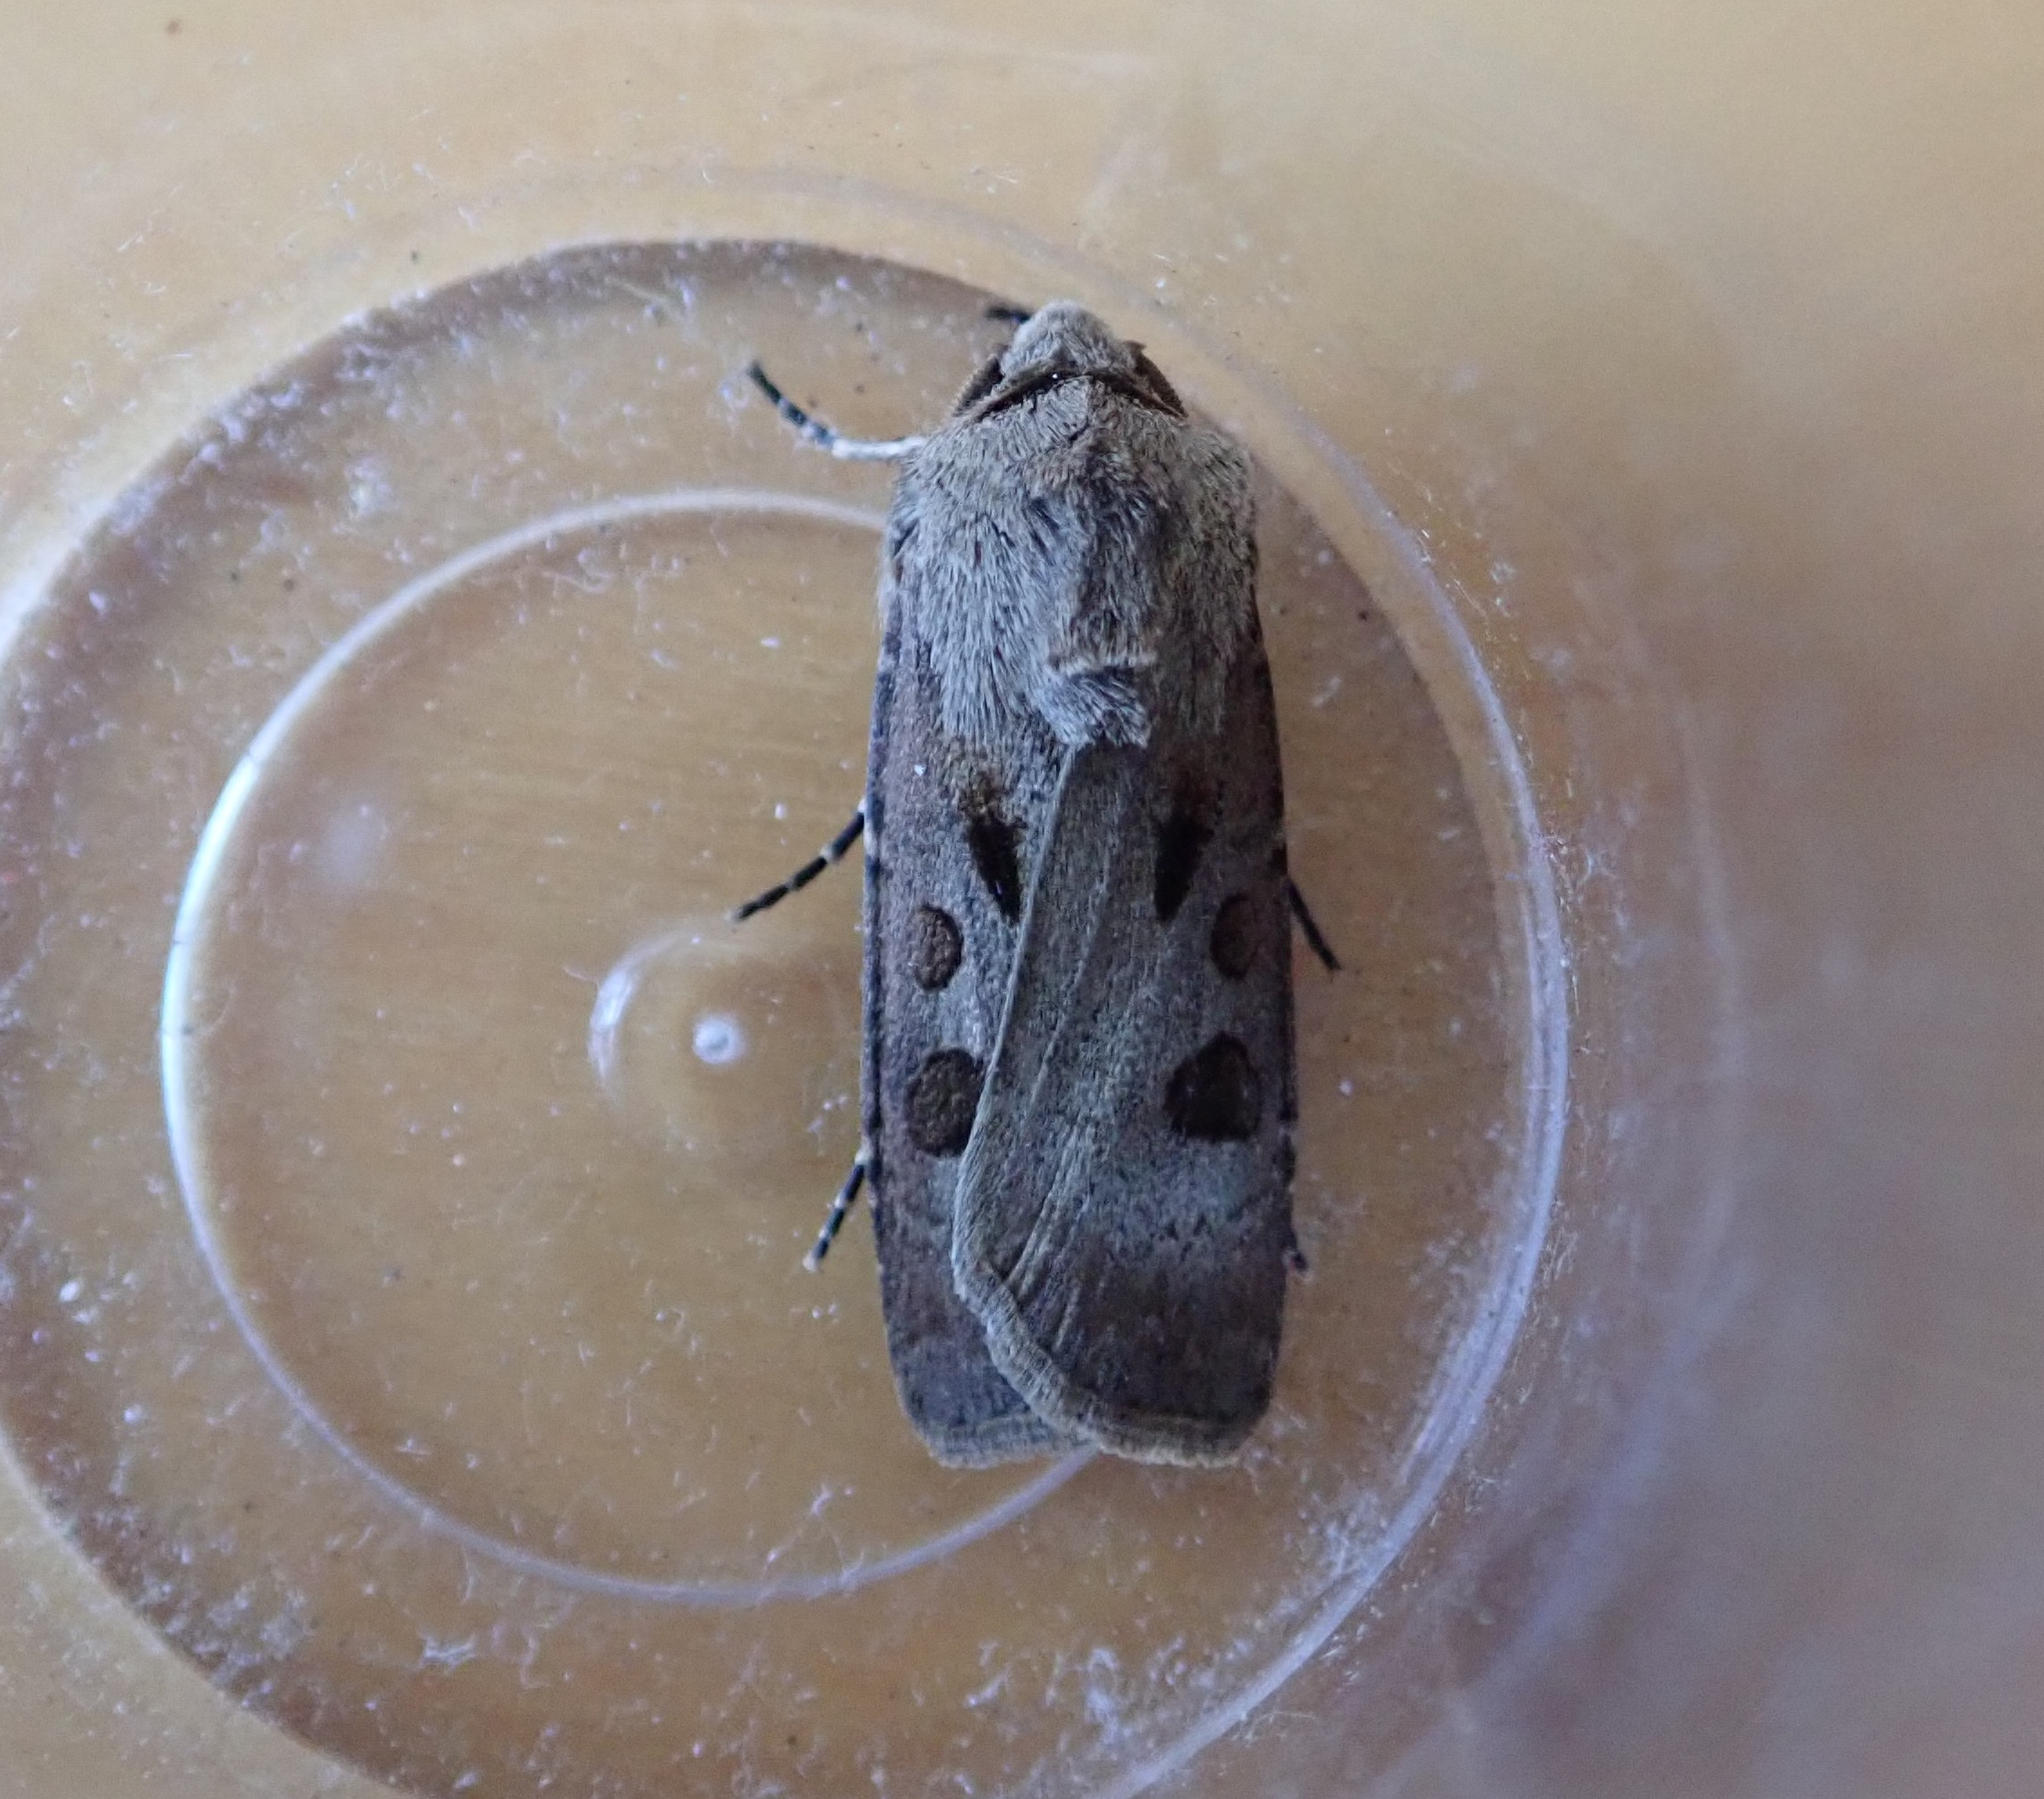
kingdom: Animalia
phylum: Arthropoda
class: Insecta
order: Lepidoptera
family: Noctuidae
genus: Agrotis
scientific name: Agrotis exclamationis
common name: Heart and dart
